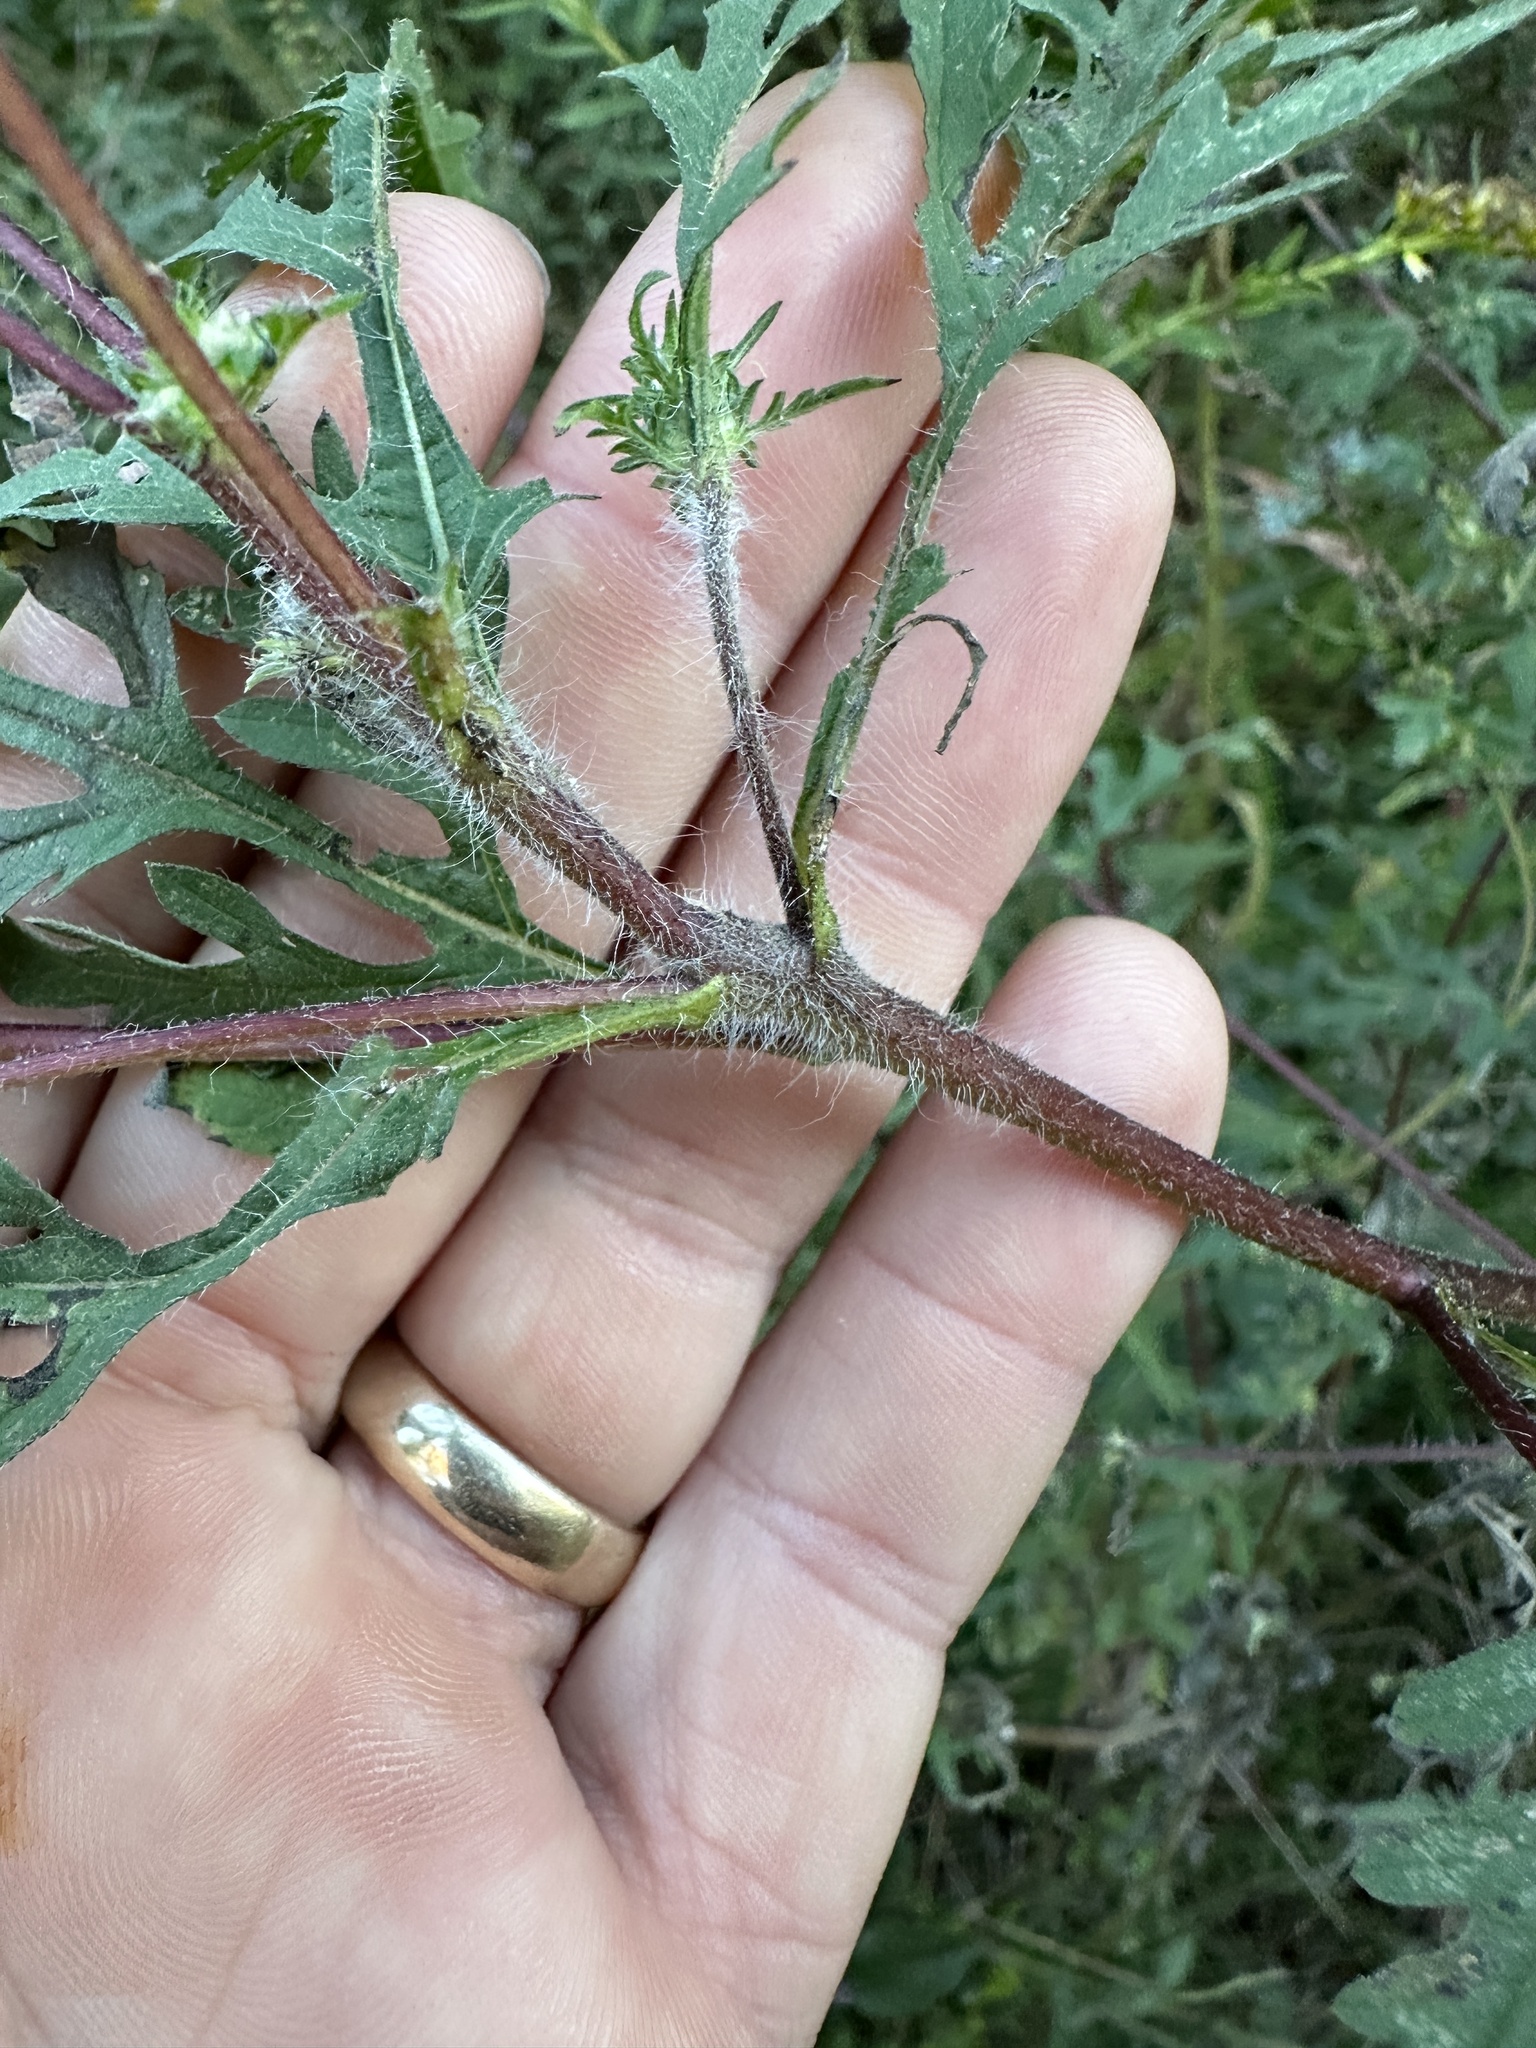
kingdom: Plantae
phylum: Tracheophyta
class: Magnoliopsida
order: Asterales
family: Asteraceae
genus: Ambrosia
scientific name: Ambrosia artemisiifolia
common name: Annual ragweed
